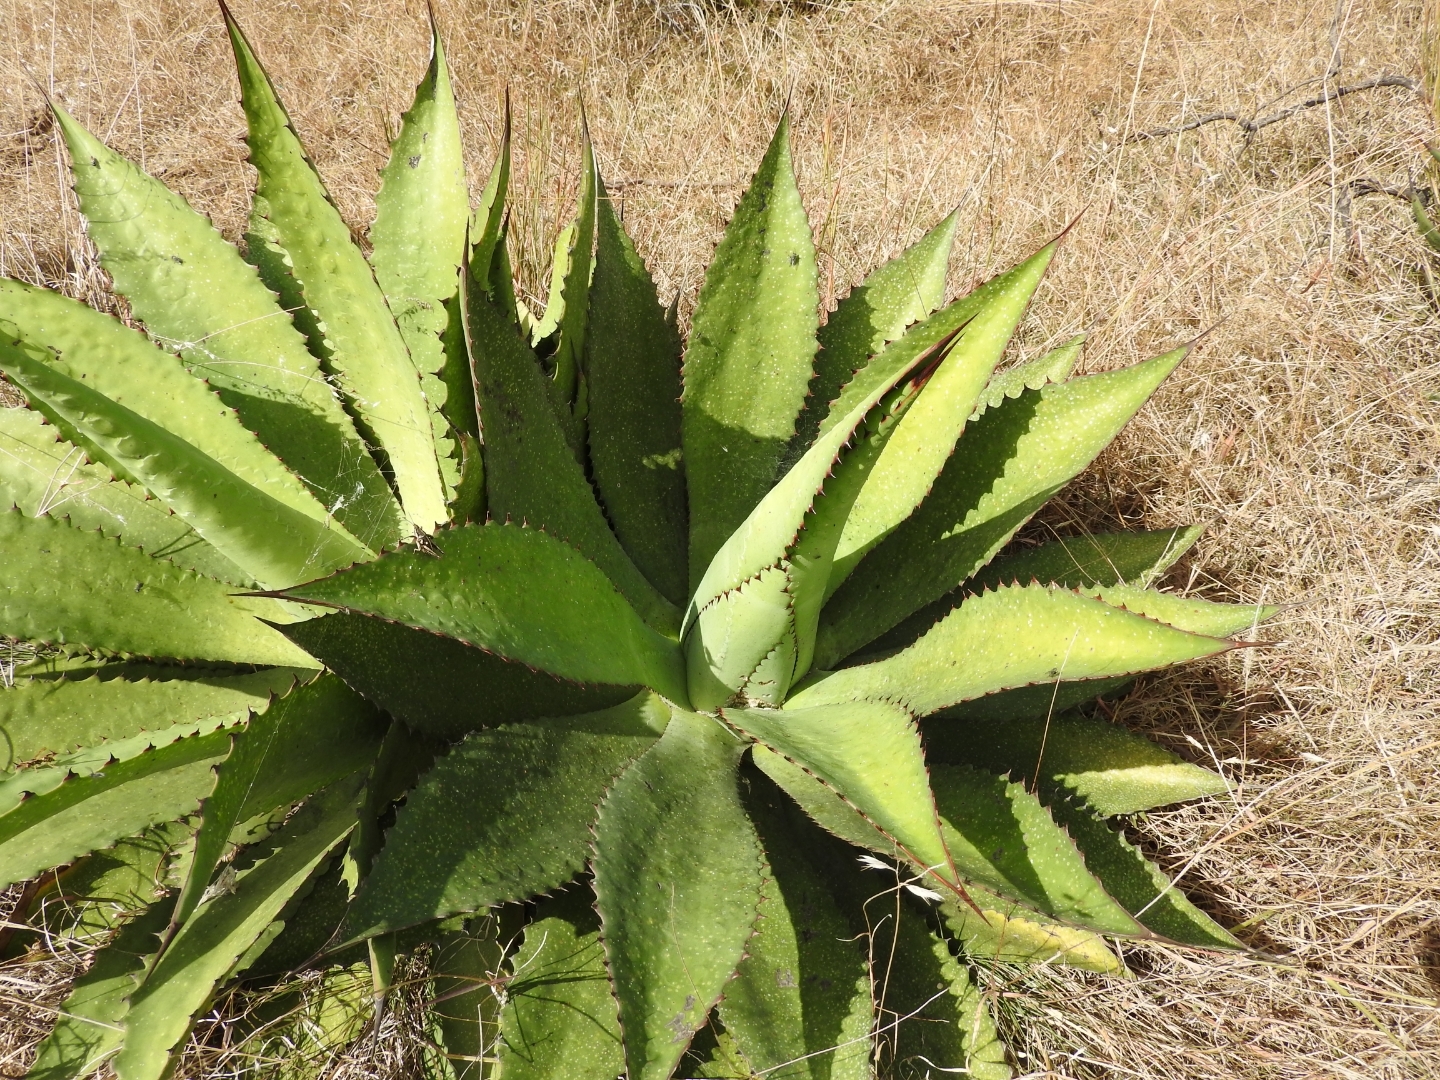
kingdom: Plantae
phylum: Tracheophyta
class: Liliopsida
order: Asparagales
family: Asparagaceae
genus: Agave
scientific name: Agave inaequidens
